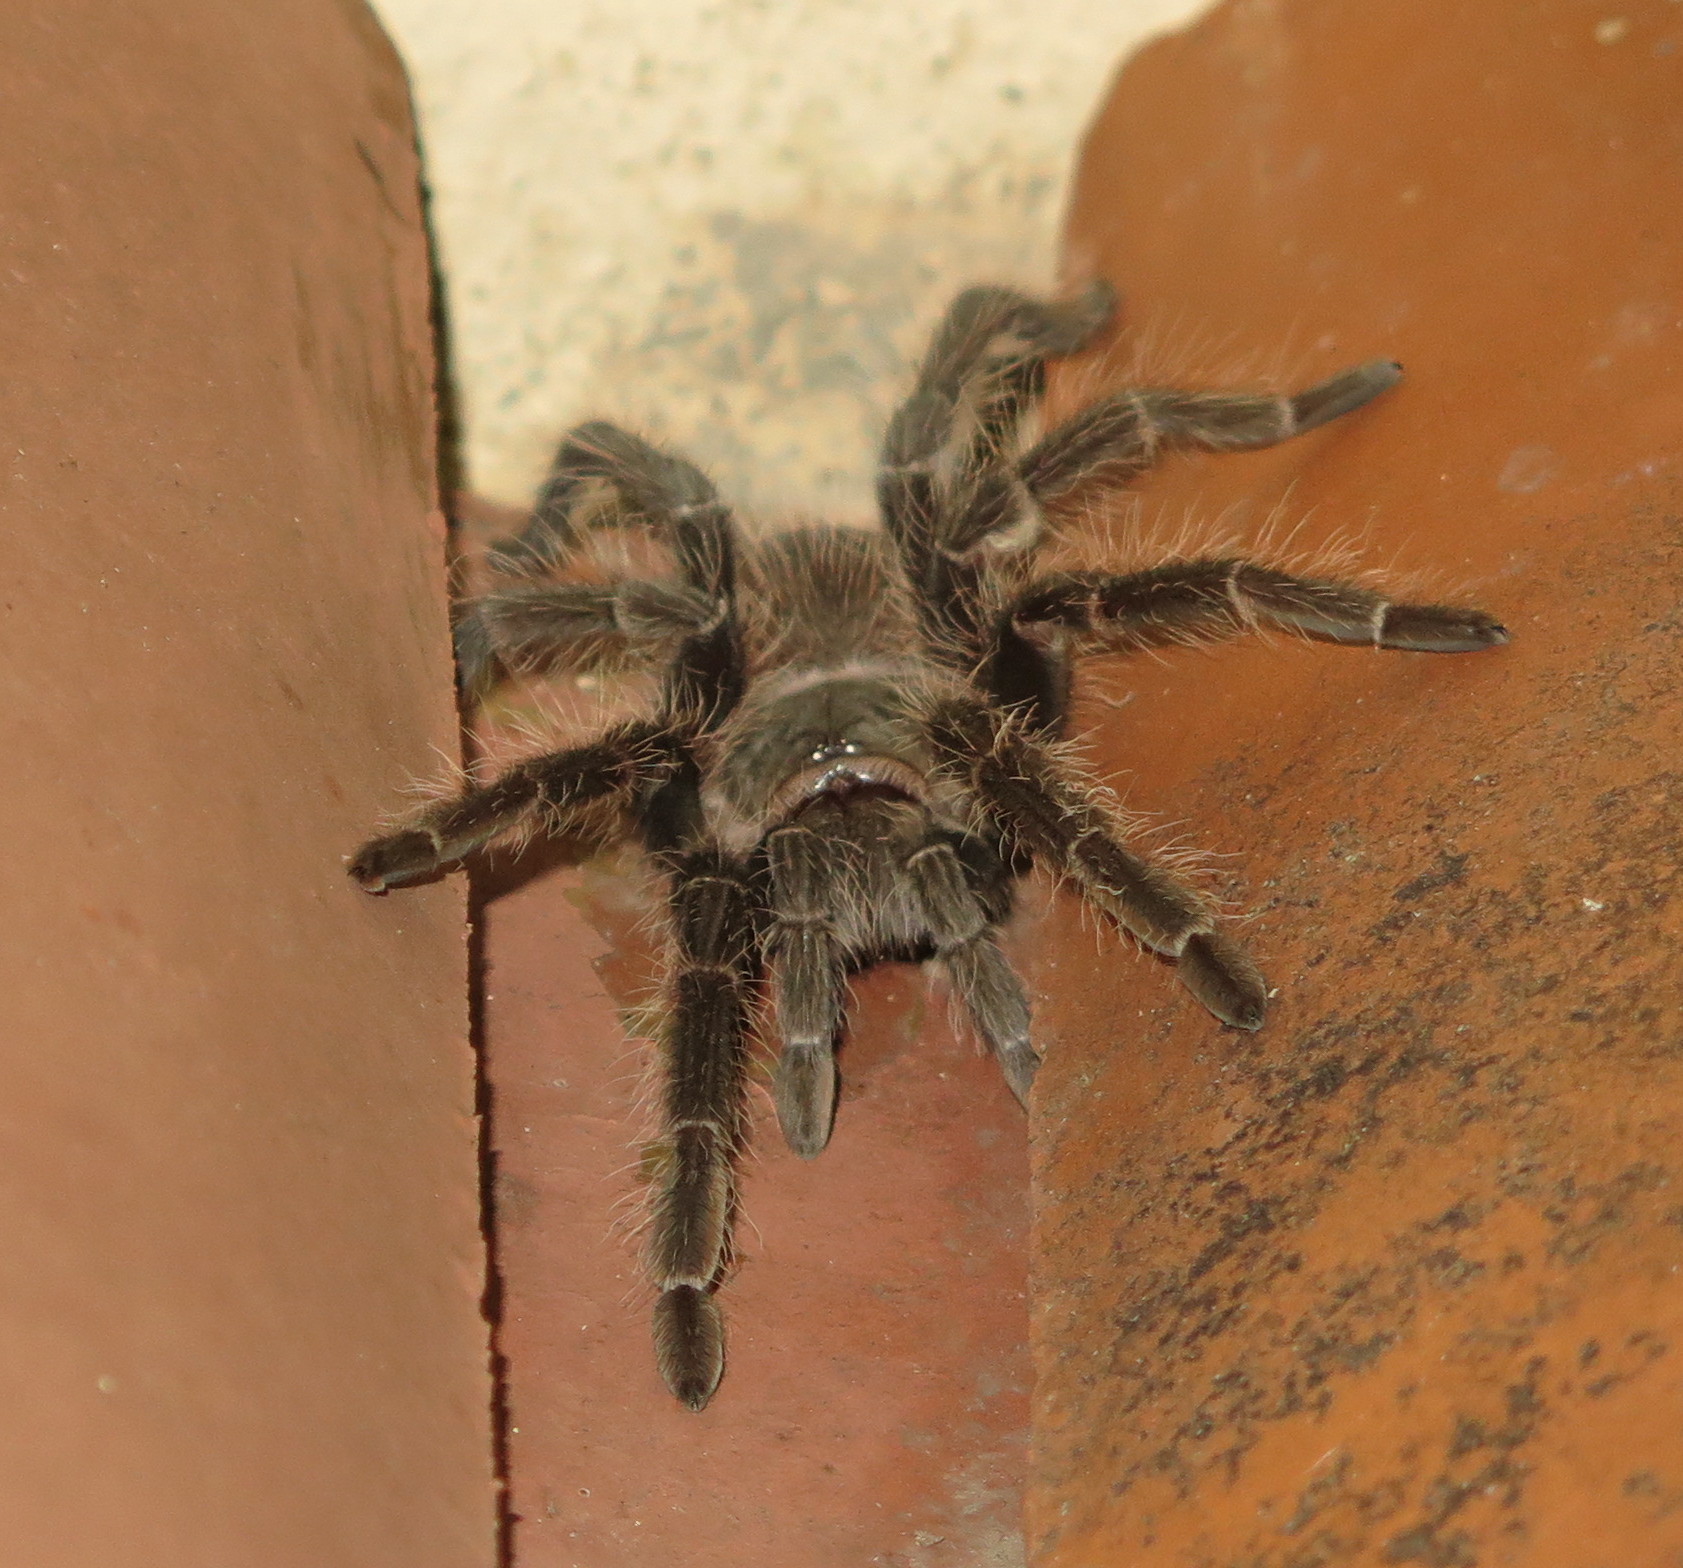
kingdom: Animalia
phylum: Arthropoda
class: Arachnida
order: Araneae
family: Theraphosidae
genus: Lasiodora
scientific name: Lasiodora parahybana
